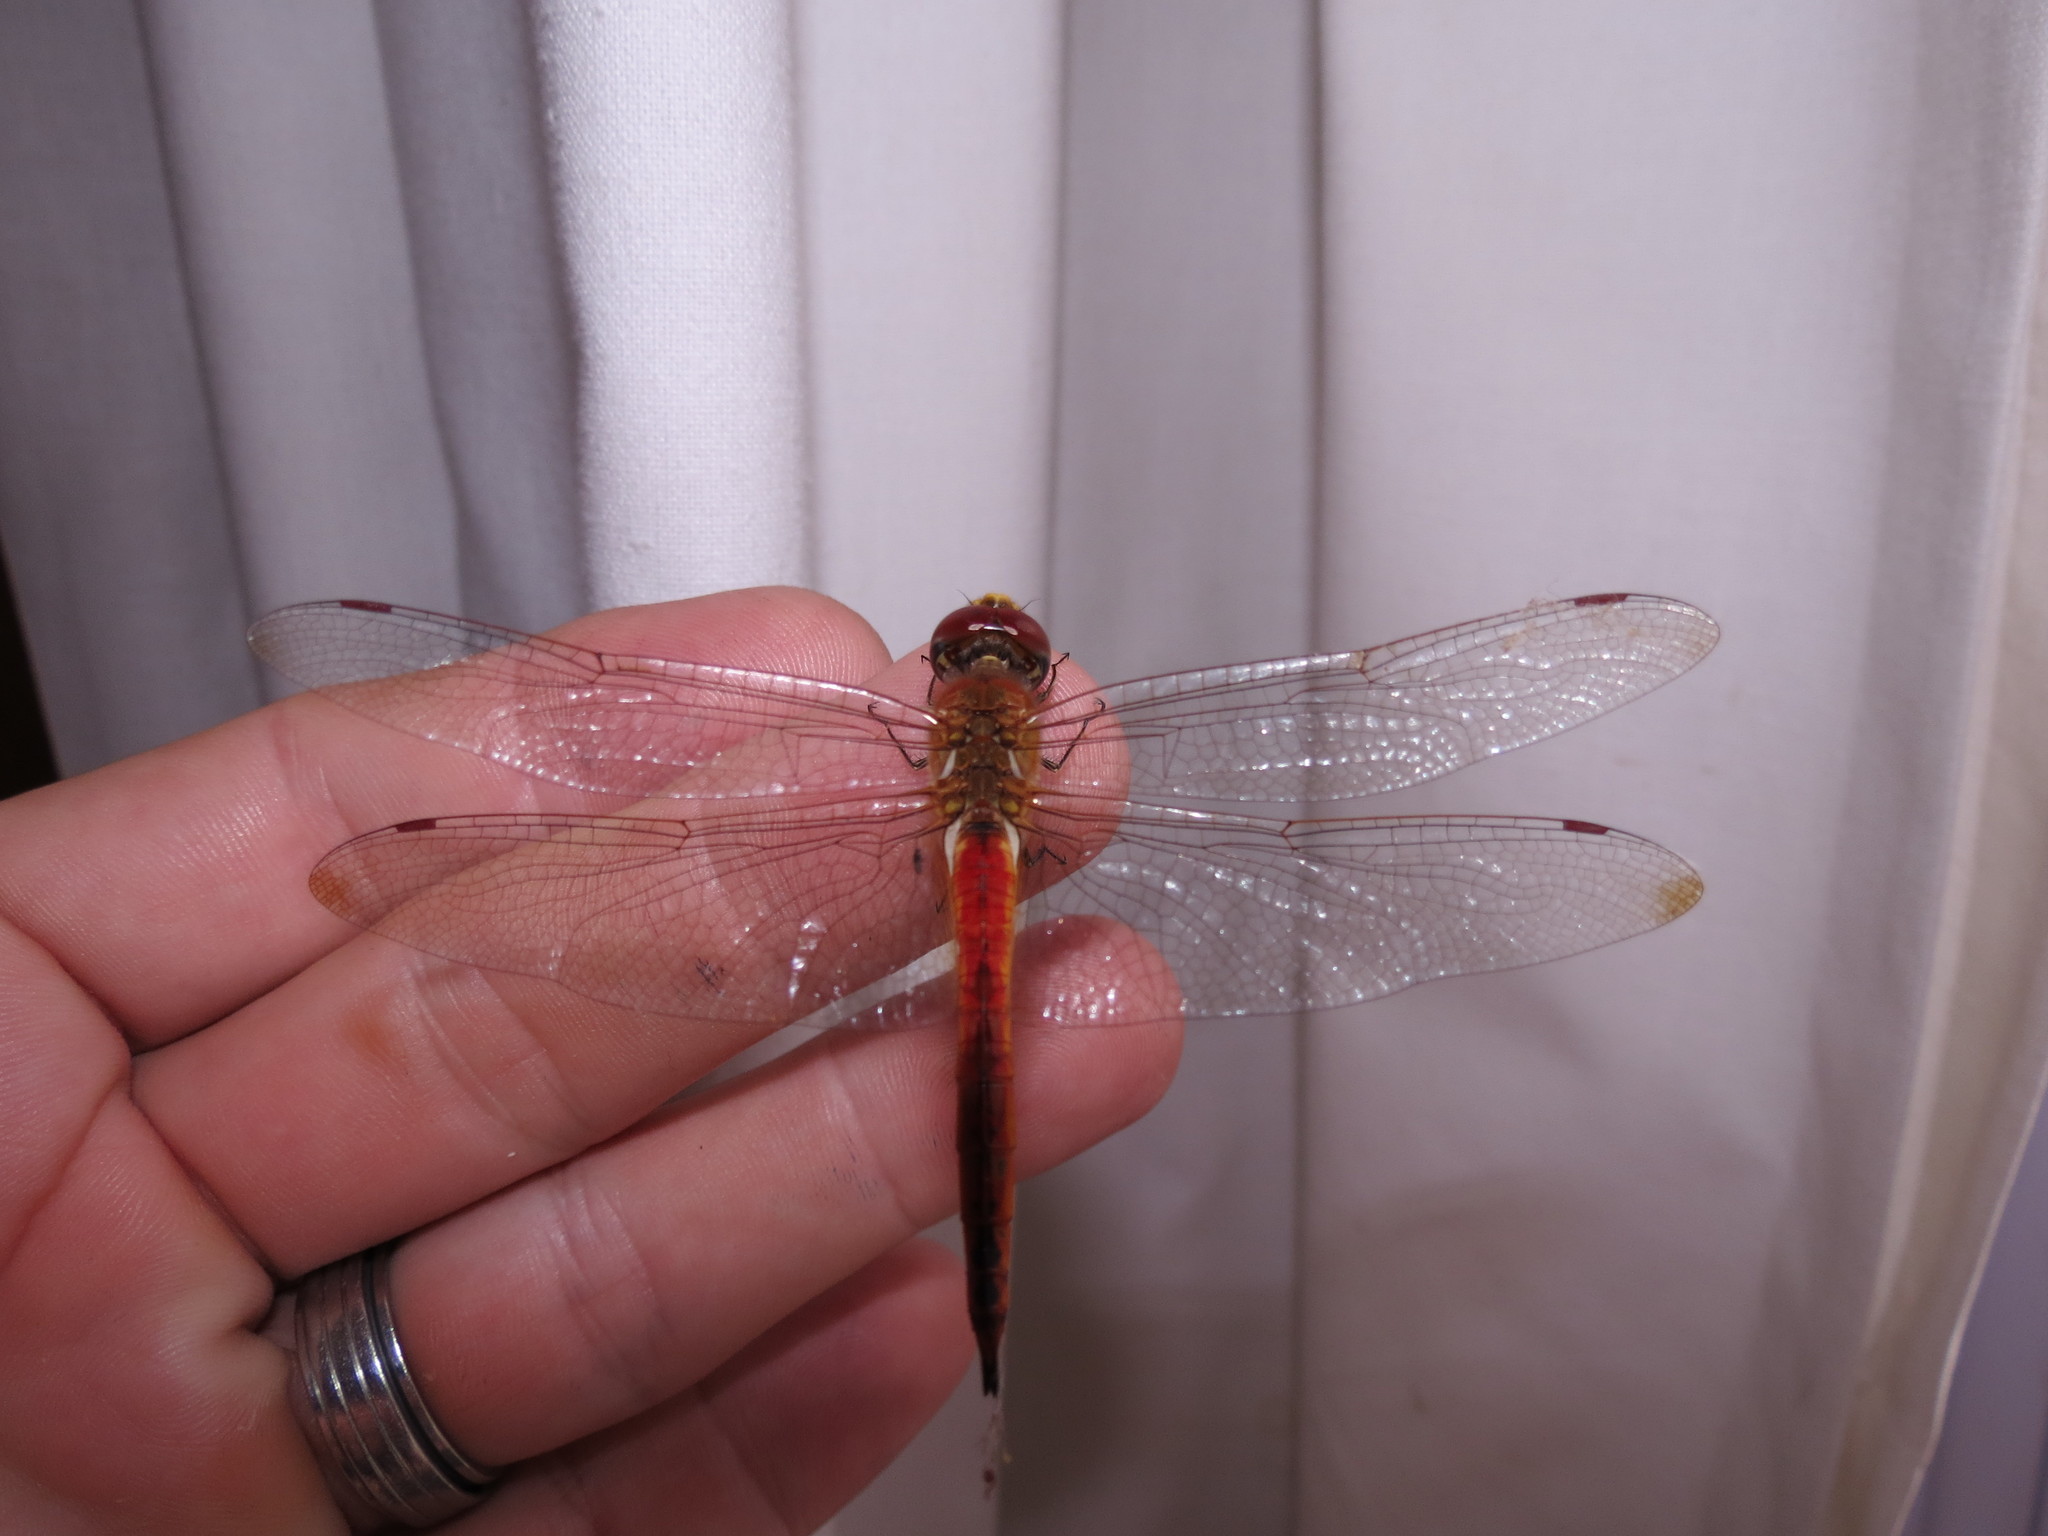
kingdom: Animalia
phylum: Arthropoda
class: Insecta
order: Odonata
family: Libellulidae
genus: Pantala
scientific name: Pantala flavescens
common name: Wandering glider
